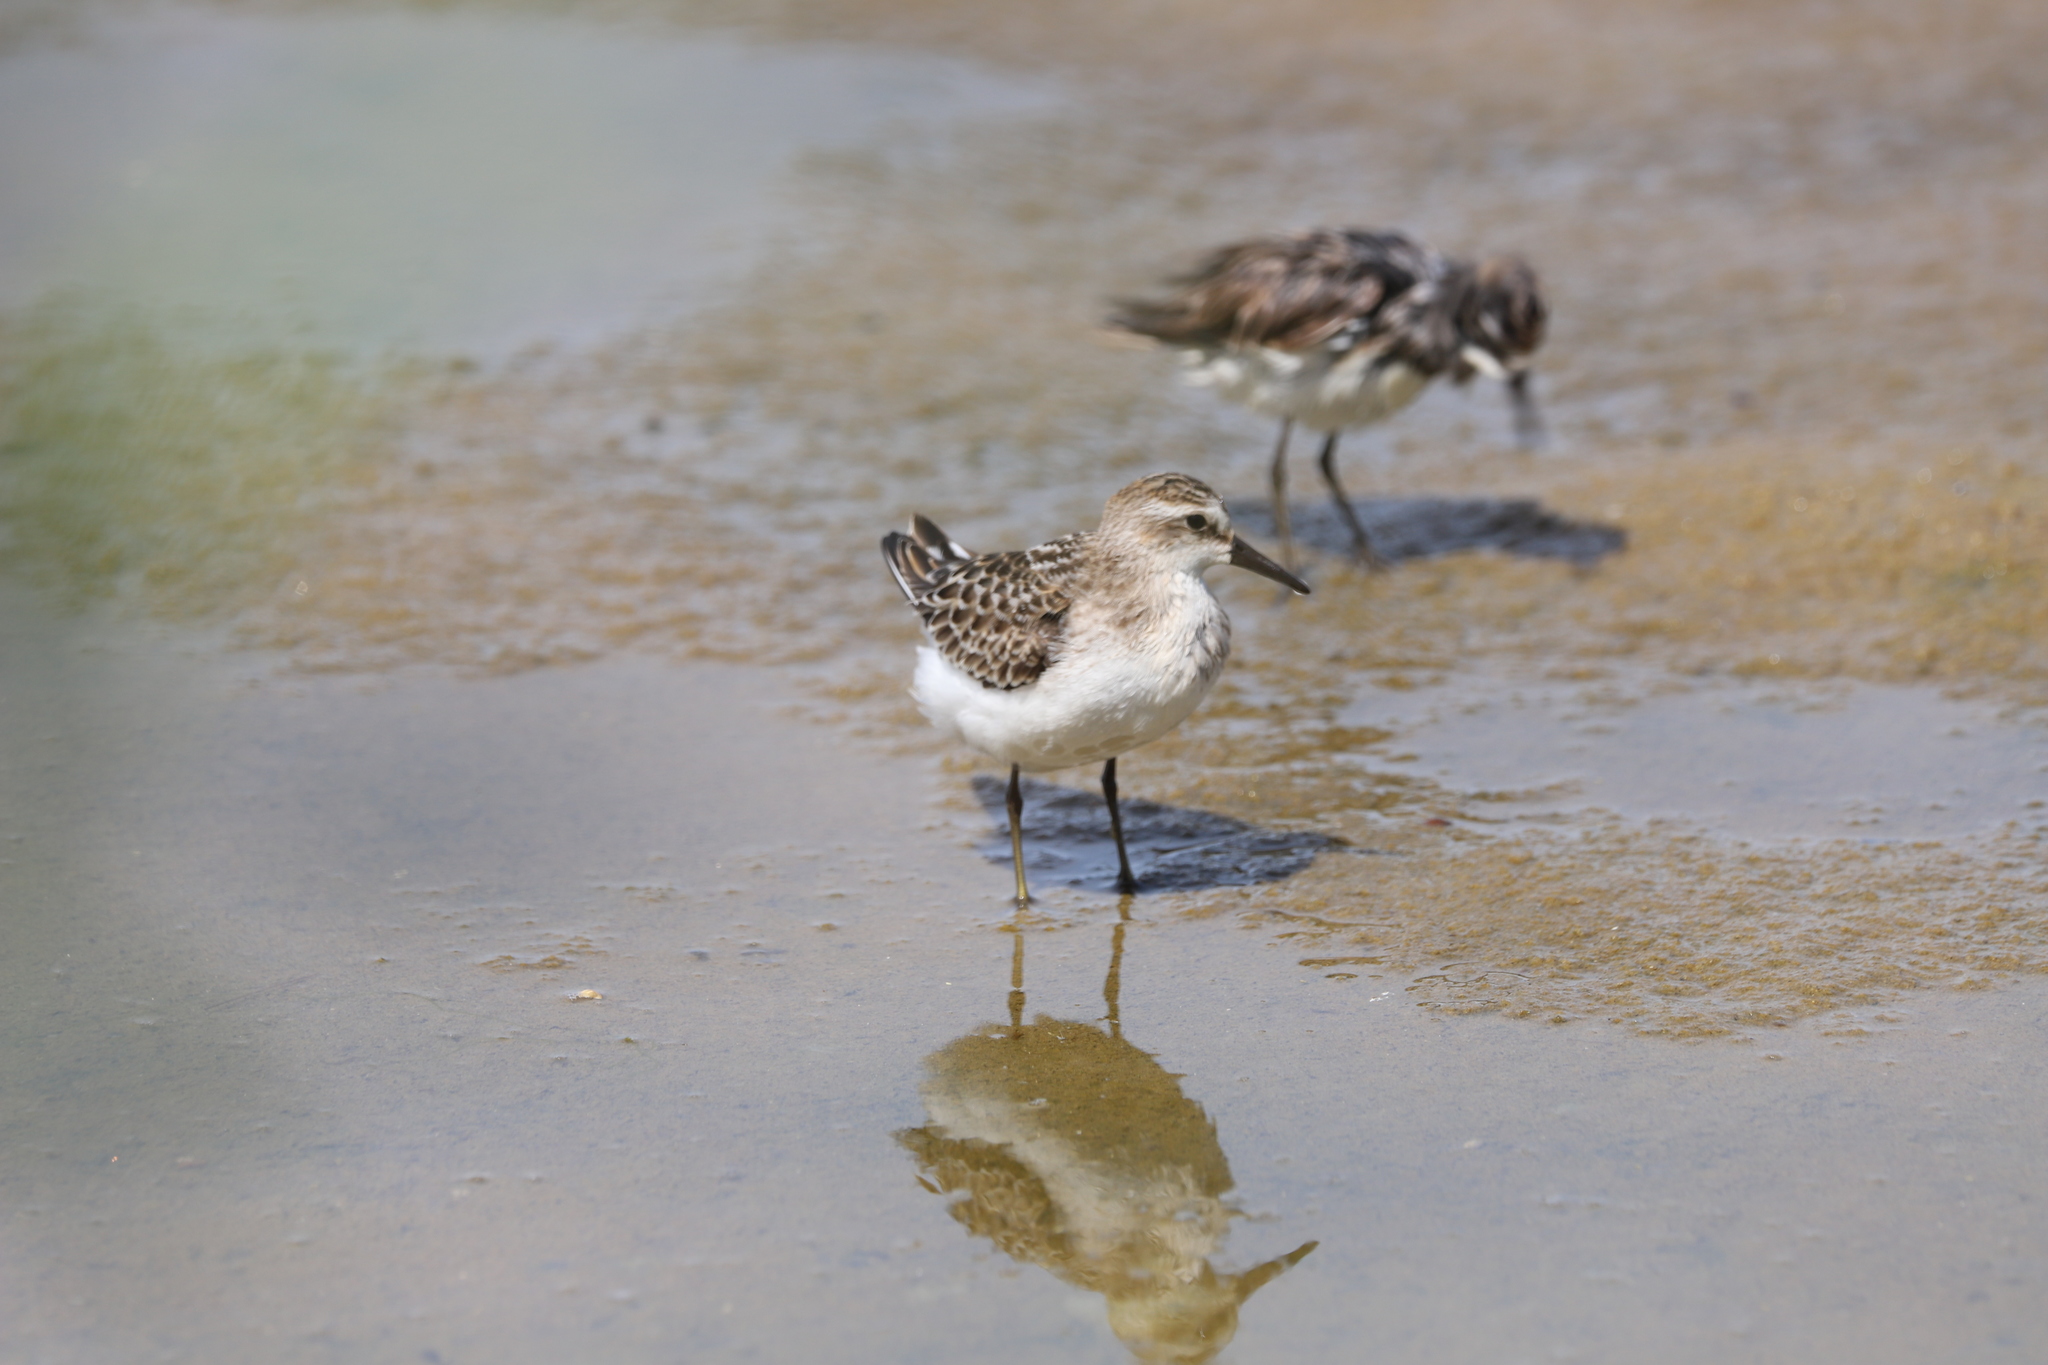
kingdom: Animalia
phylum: Chordata
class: Aves
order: Charadriiformes
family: Scolopacidae
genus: Calidris
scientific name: Calidris pusilla
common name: Semipalmated sandpiper
